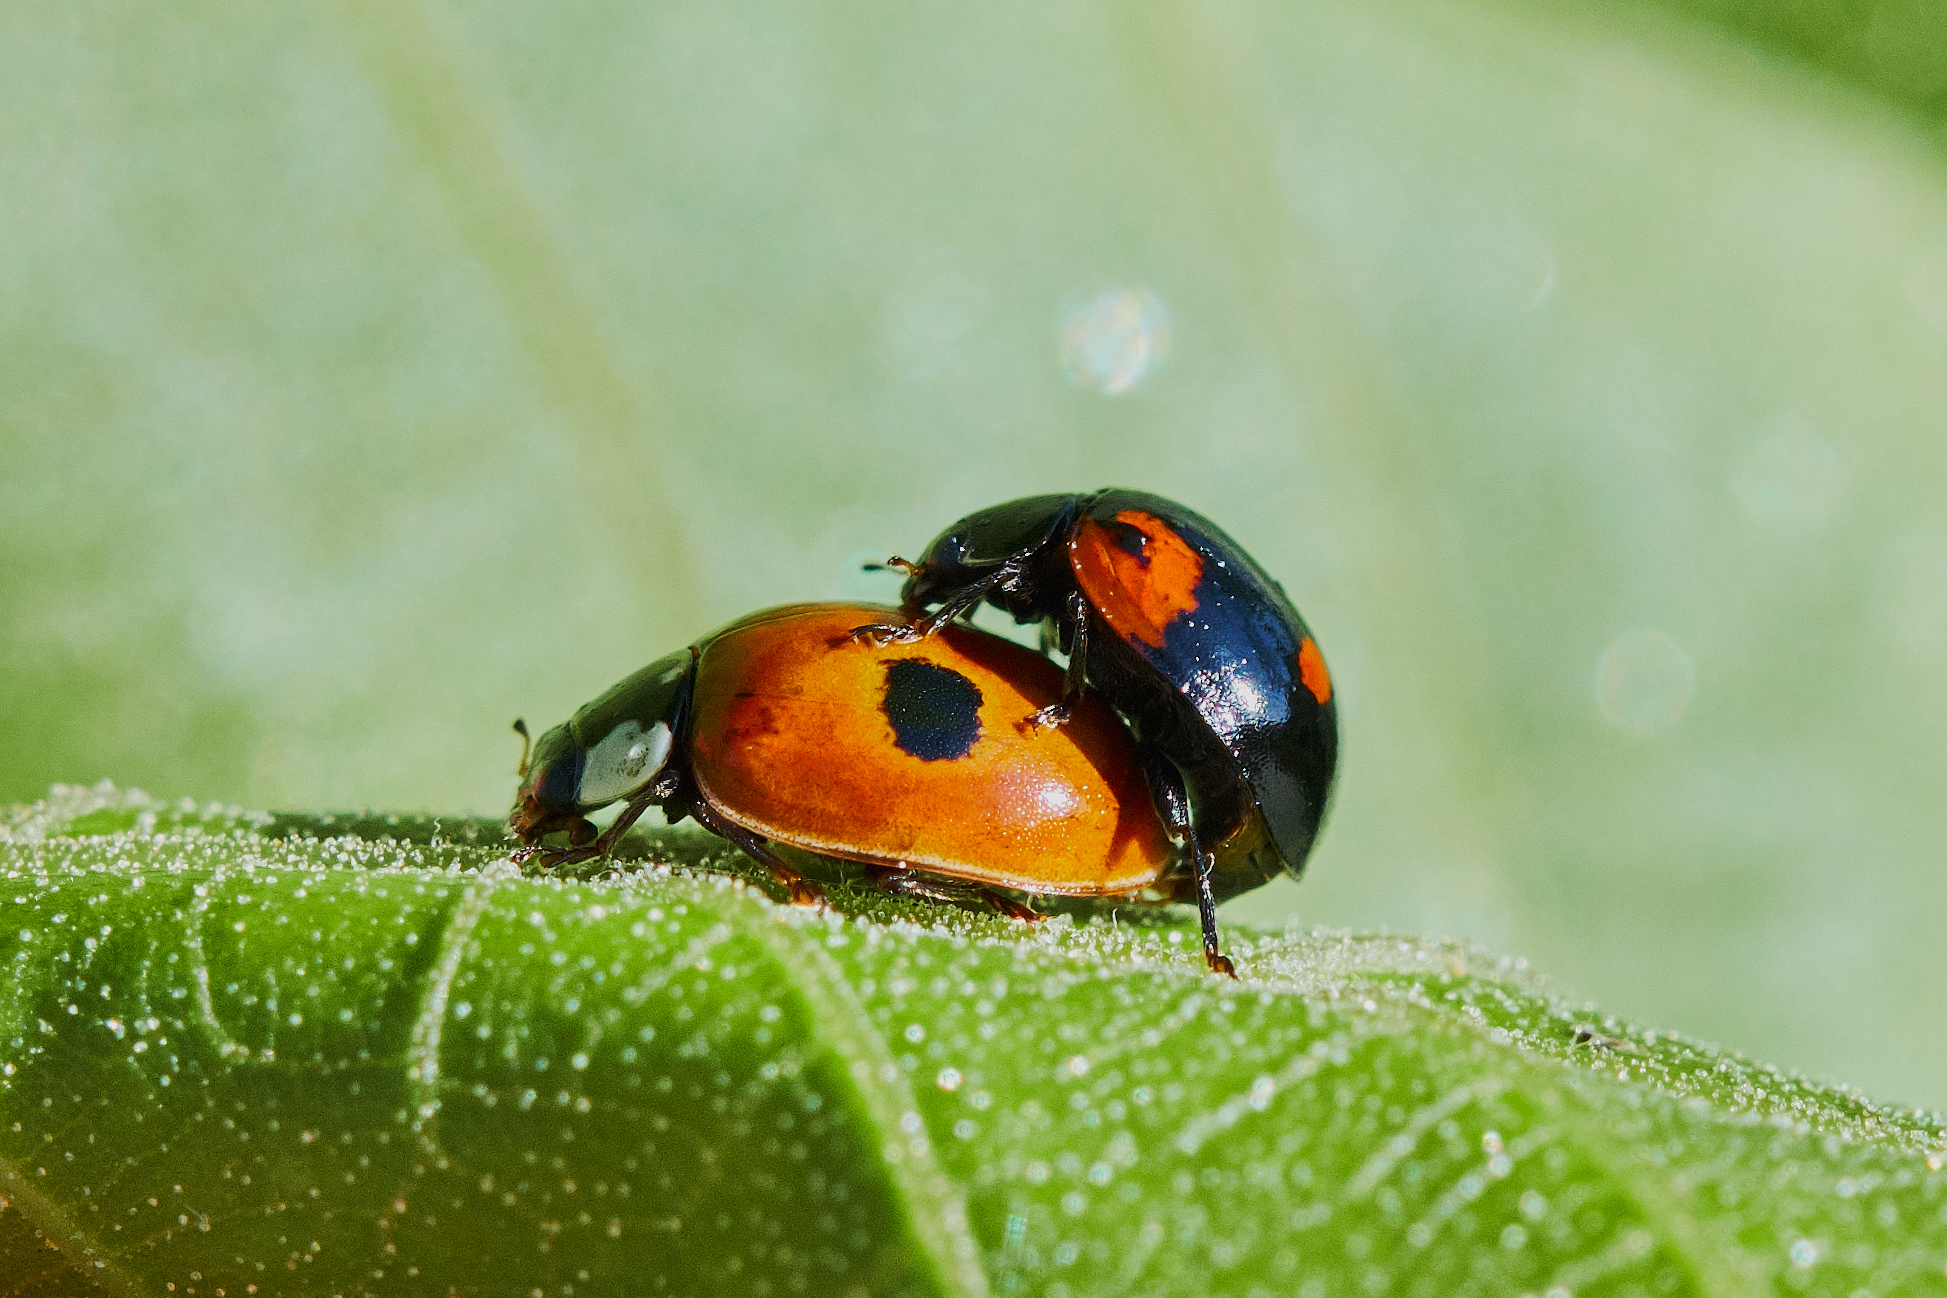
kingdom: Animalia
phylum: Arthropoda
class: Insecta
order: Coleoptera
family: Coccinellidae
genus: Adalia
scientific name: Adalia bipunctata
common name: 2-spot ladybird
